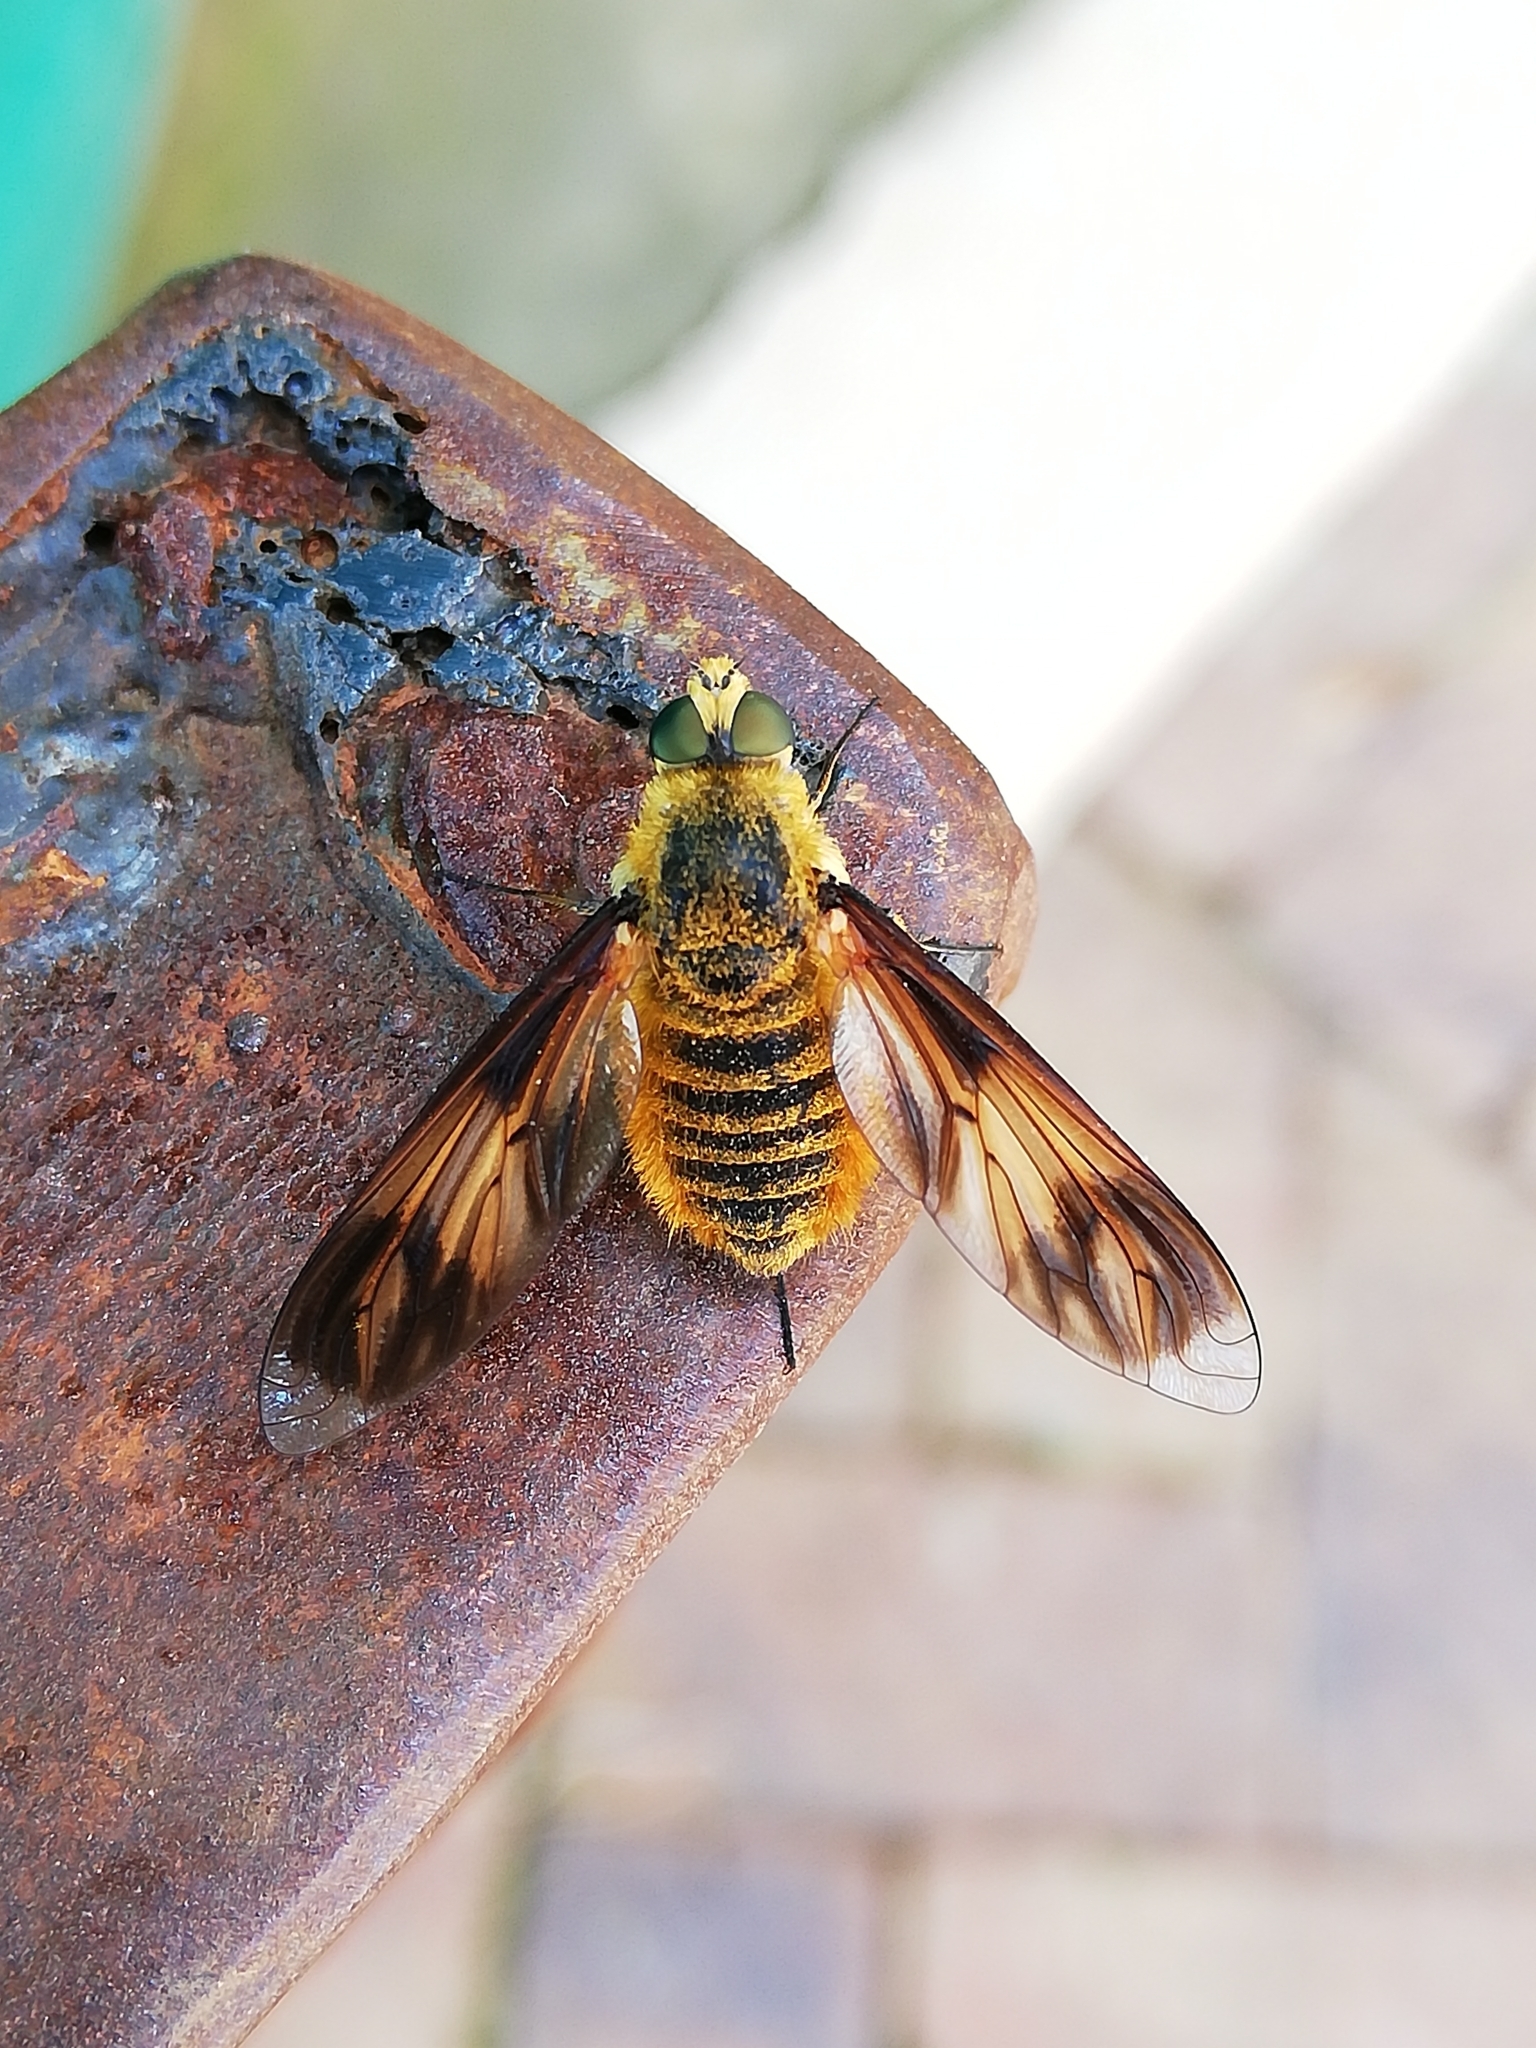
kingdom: Animalia
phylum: Arthropoda
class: Insecta
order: Diptera
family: Bombyliidae
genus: Notolomatia
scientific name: Notolomatia pictipennis
